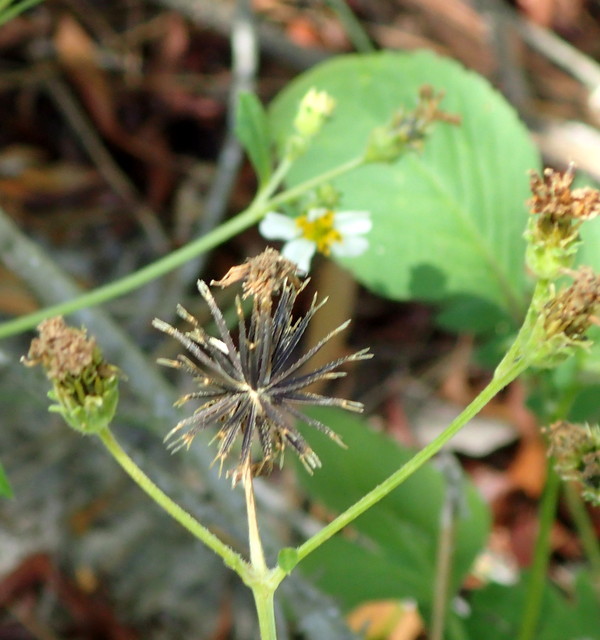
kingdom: Plantae
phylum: Tracheophyta
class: Magnoliopsida
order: Asterales
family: Asteraceae
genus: Bidens
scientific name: Bidens alba
